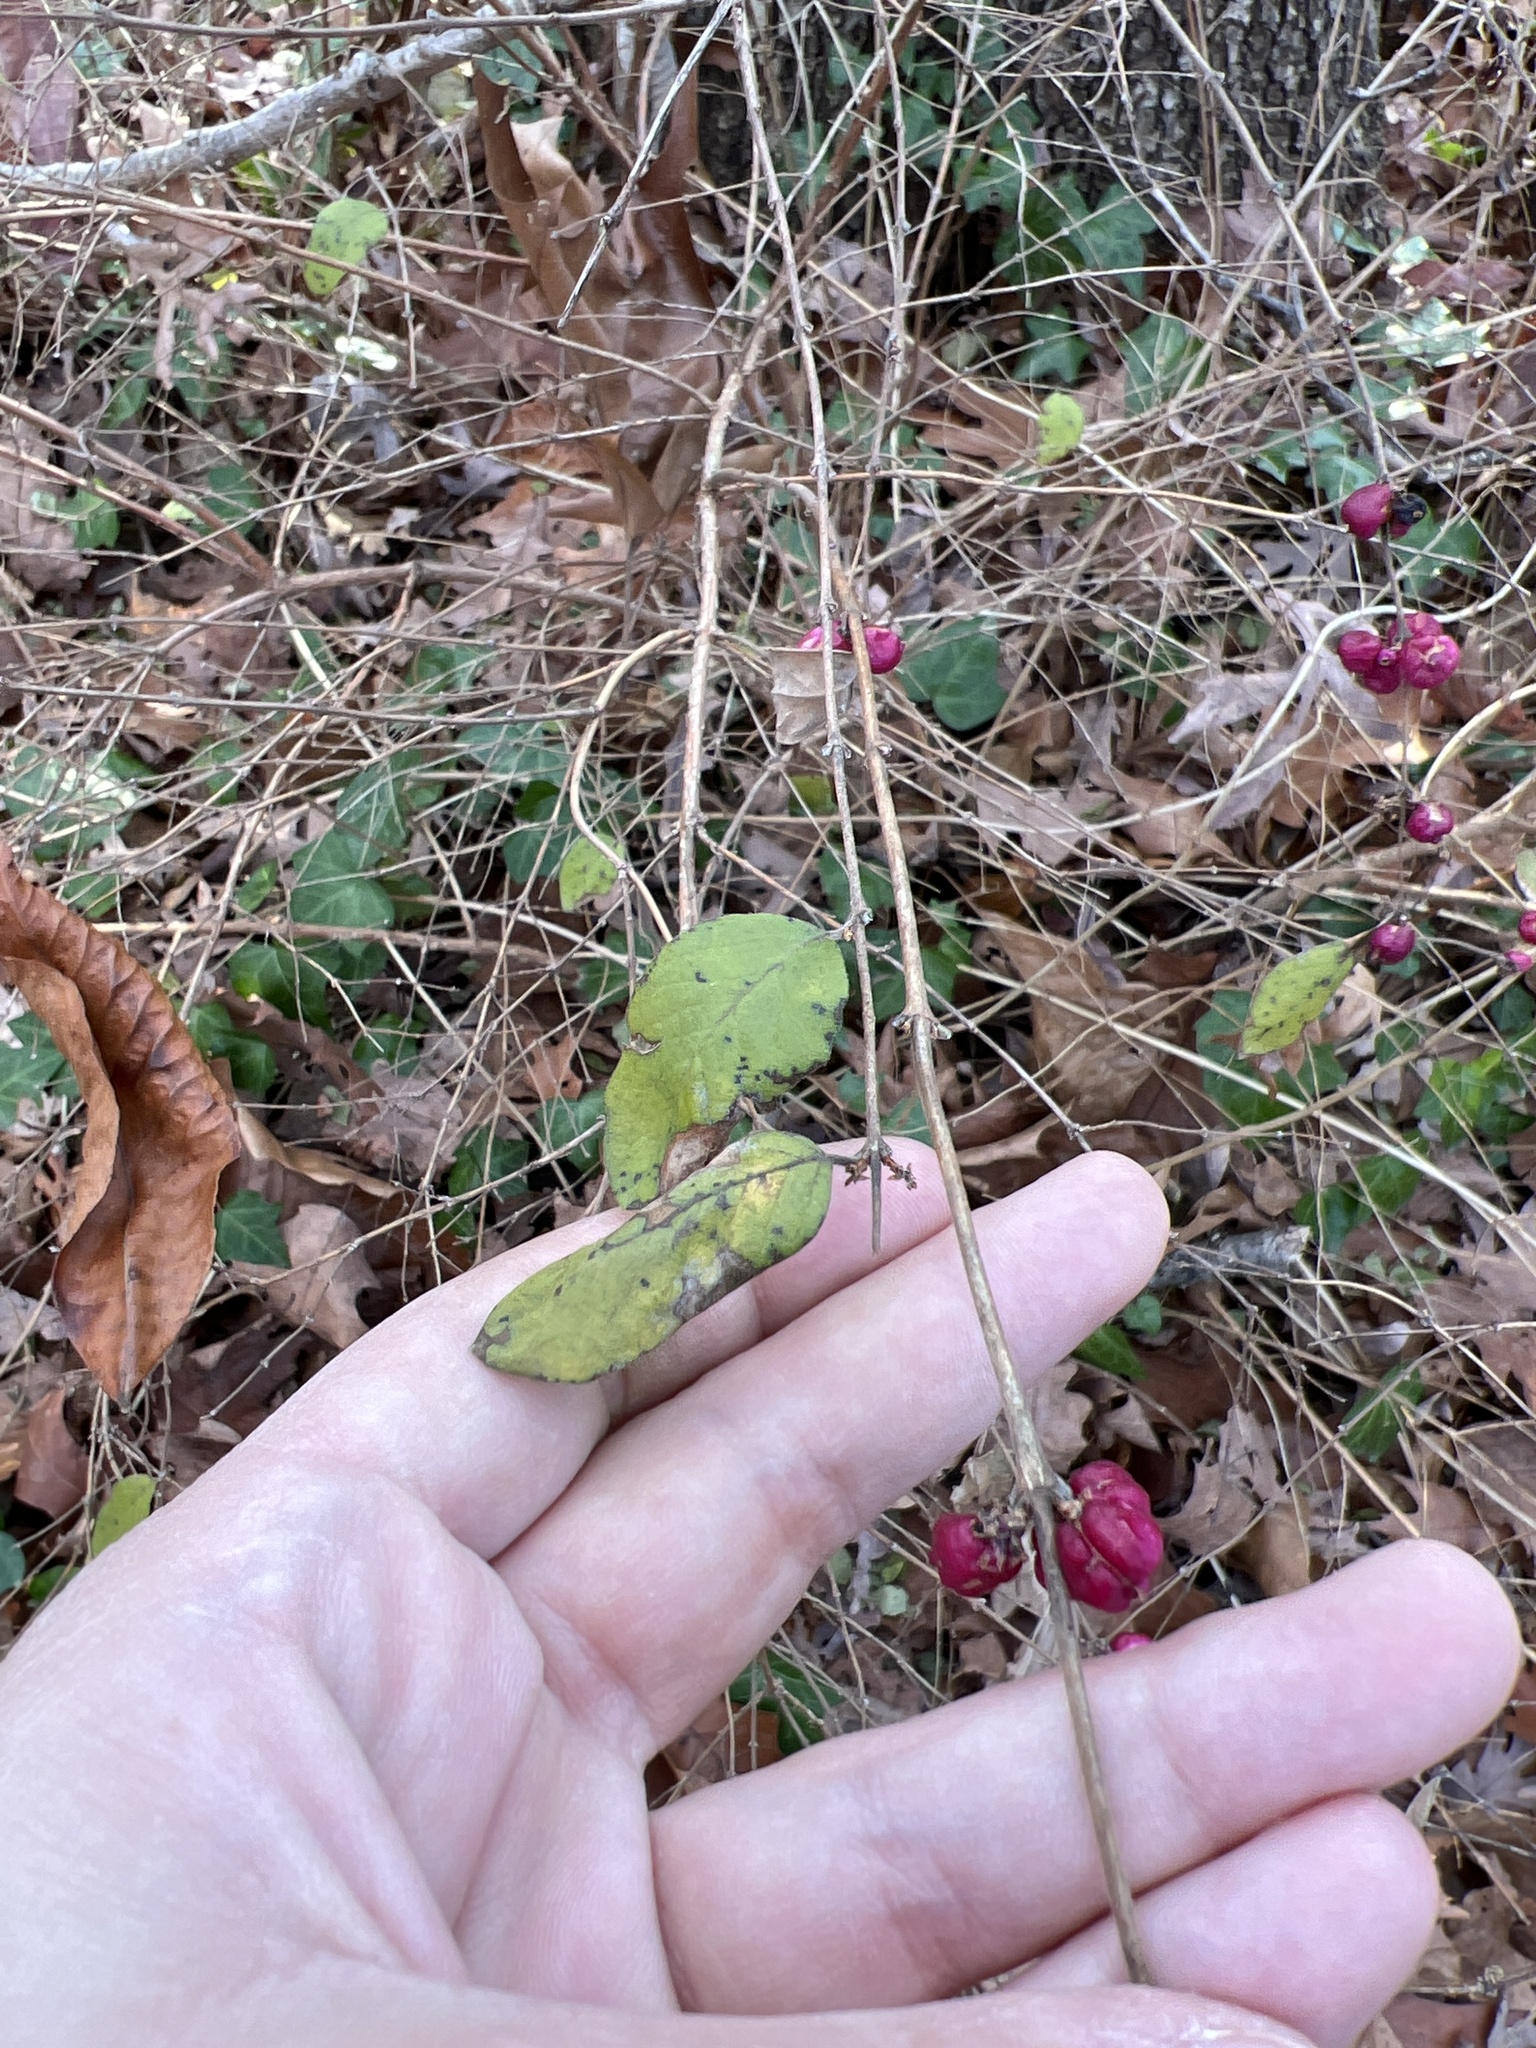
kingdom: Plantae
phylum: Tracheophyta
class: Magnoliopsida
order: Dipsacales
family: Caprifoliaceae
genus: Symphoricarpos
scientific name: Symphoricarpos orbiculatus
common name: Coralberry
